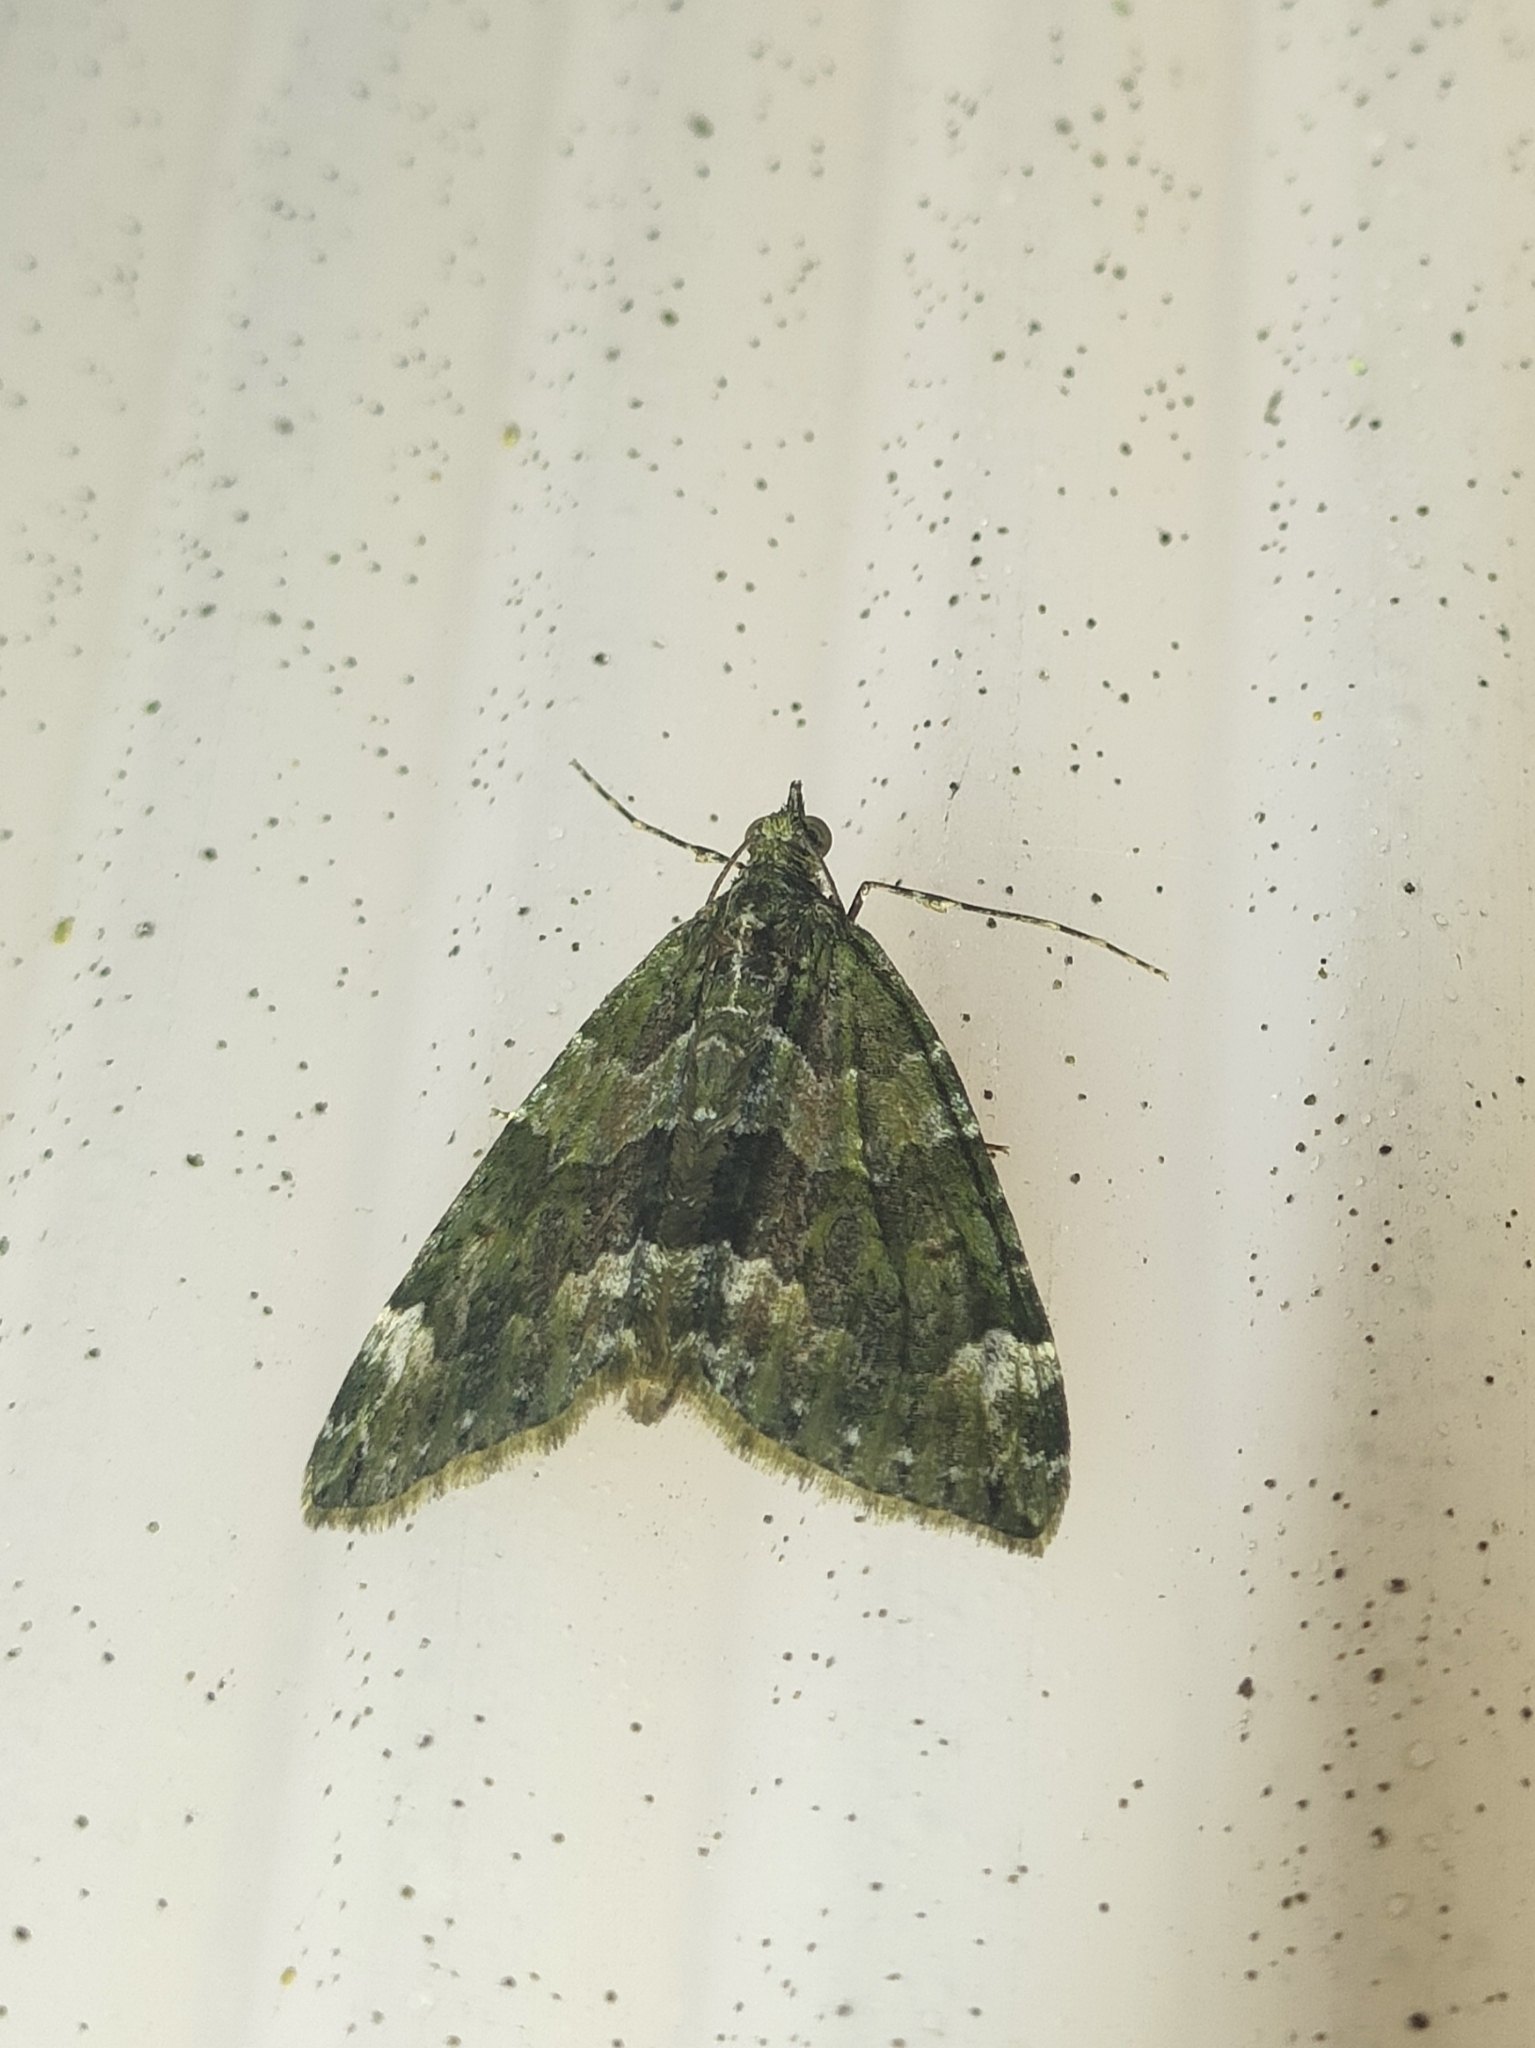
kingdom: Animalia
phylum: Arthropoda
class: Insecta
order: Lepidoptera
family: Geometridae
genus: Chloroclysta
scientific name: Chloroclysta siterata
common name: Red-green carpet
